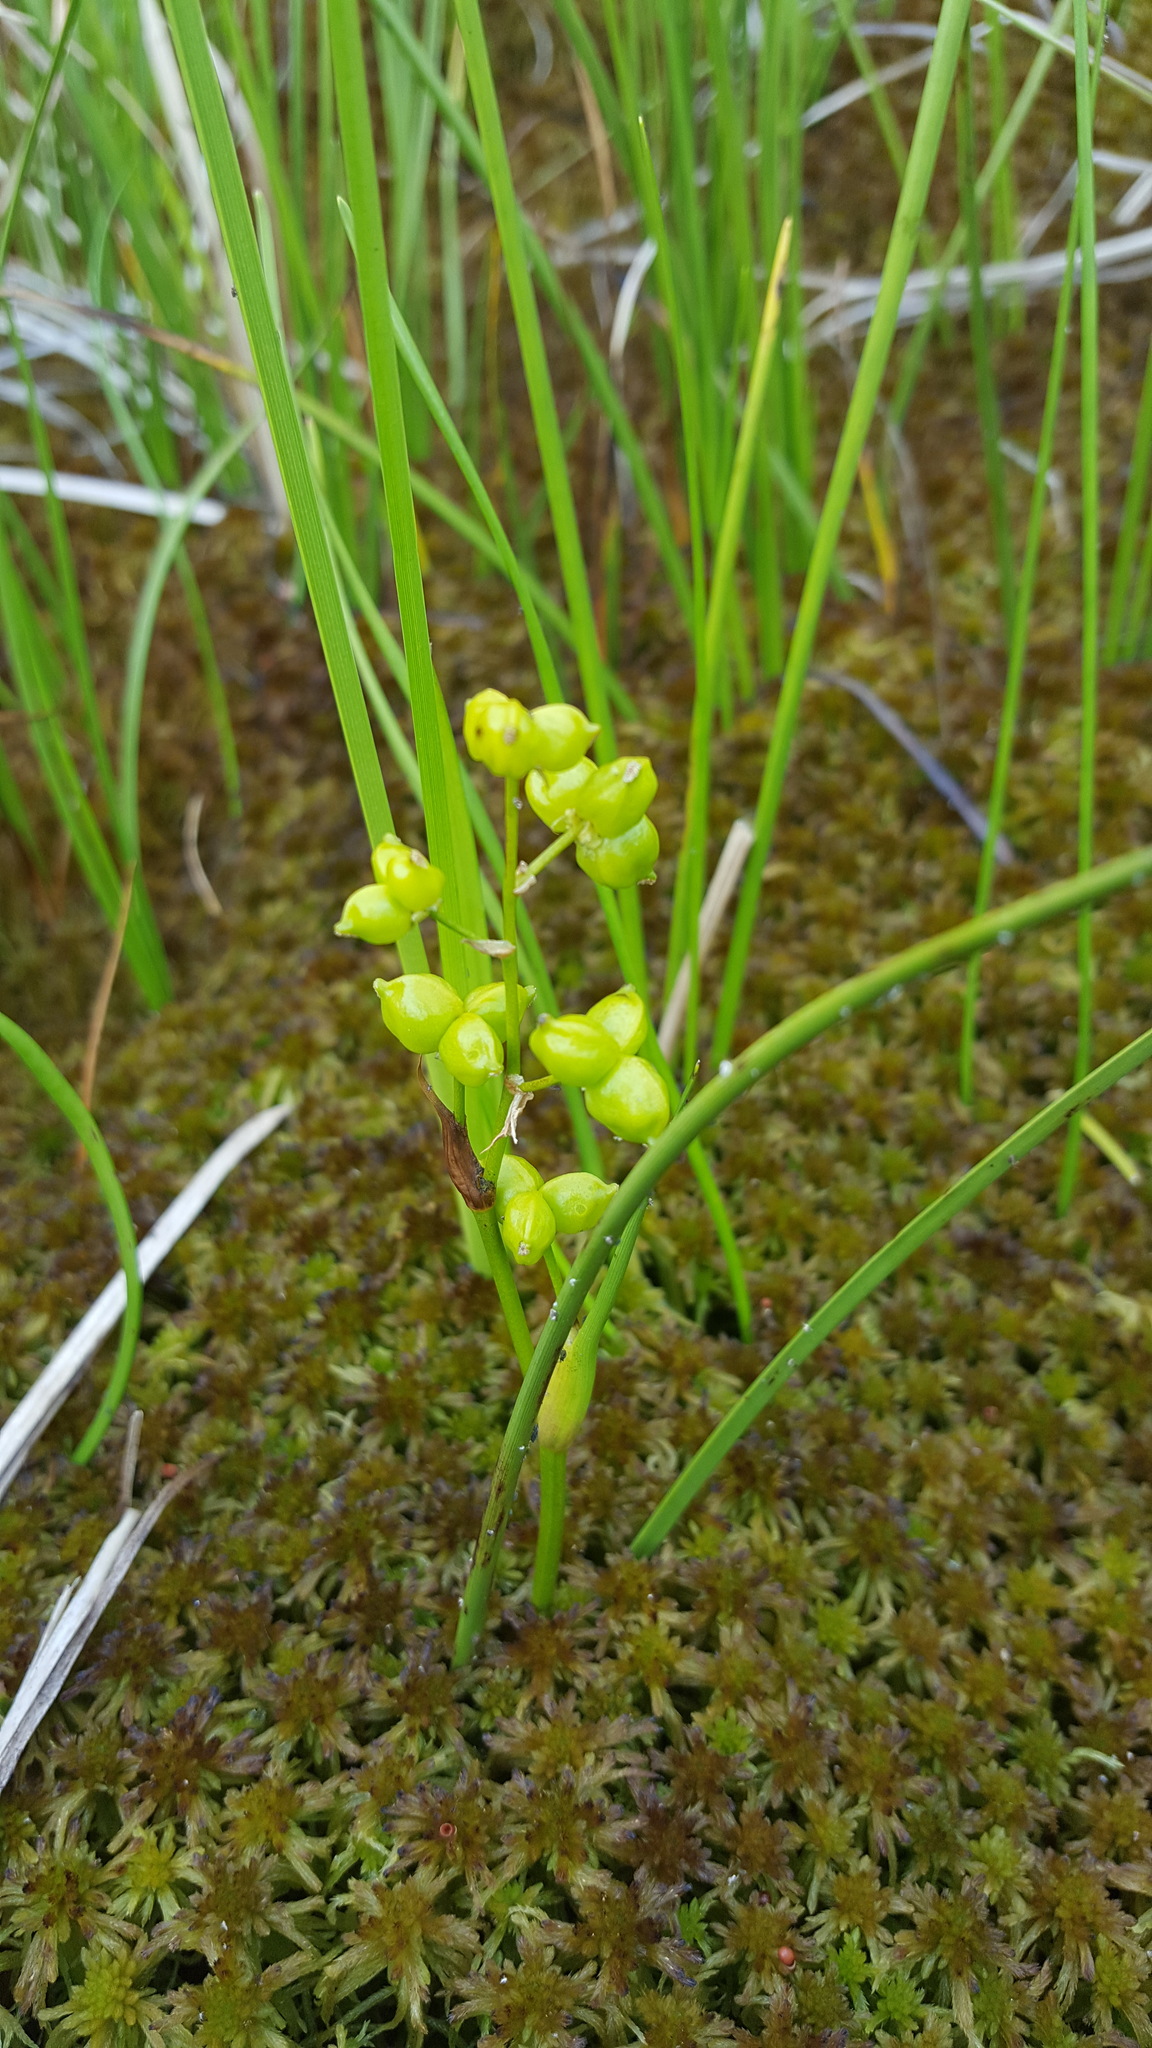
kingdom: Plantae
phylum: Tracheophyta
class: Liliopsida
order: Alismatales
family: Scheuchzeriaceae
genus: Scheuchzeria
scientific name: Scheuchzeria palustris
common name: Rannoch-rush
